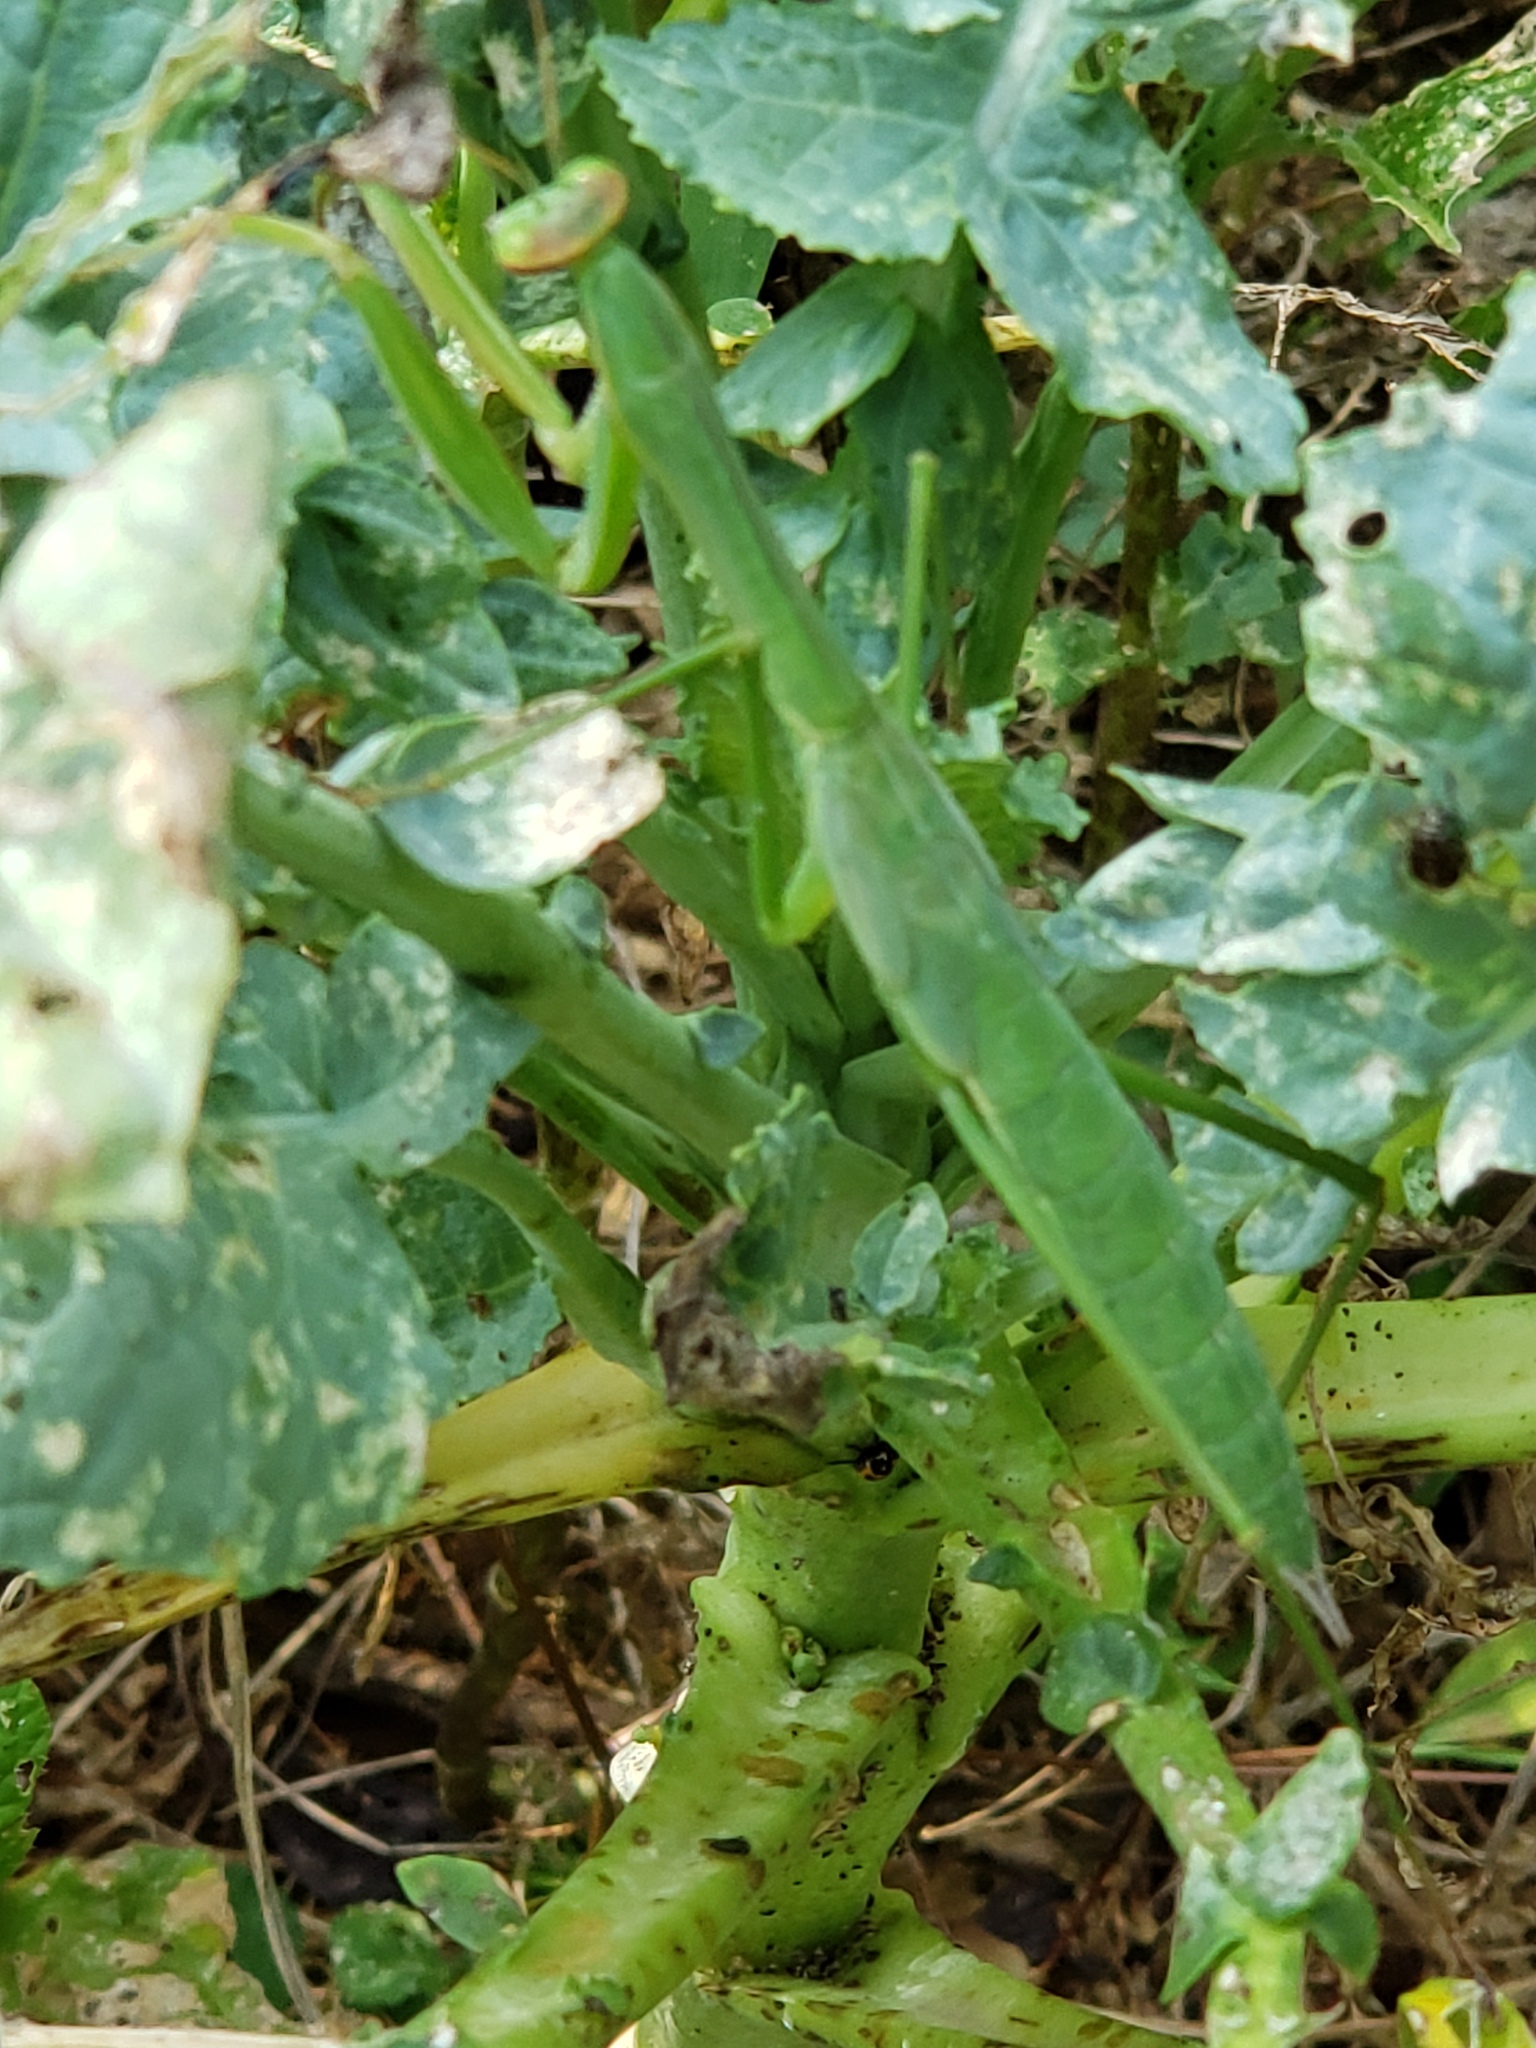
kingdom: Animalia
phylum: Arthropoda
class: Insecta
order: Mantodea
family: Mantidae
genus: Tenodera
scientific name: Tenodera sinensis
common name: Chinese mantis
